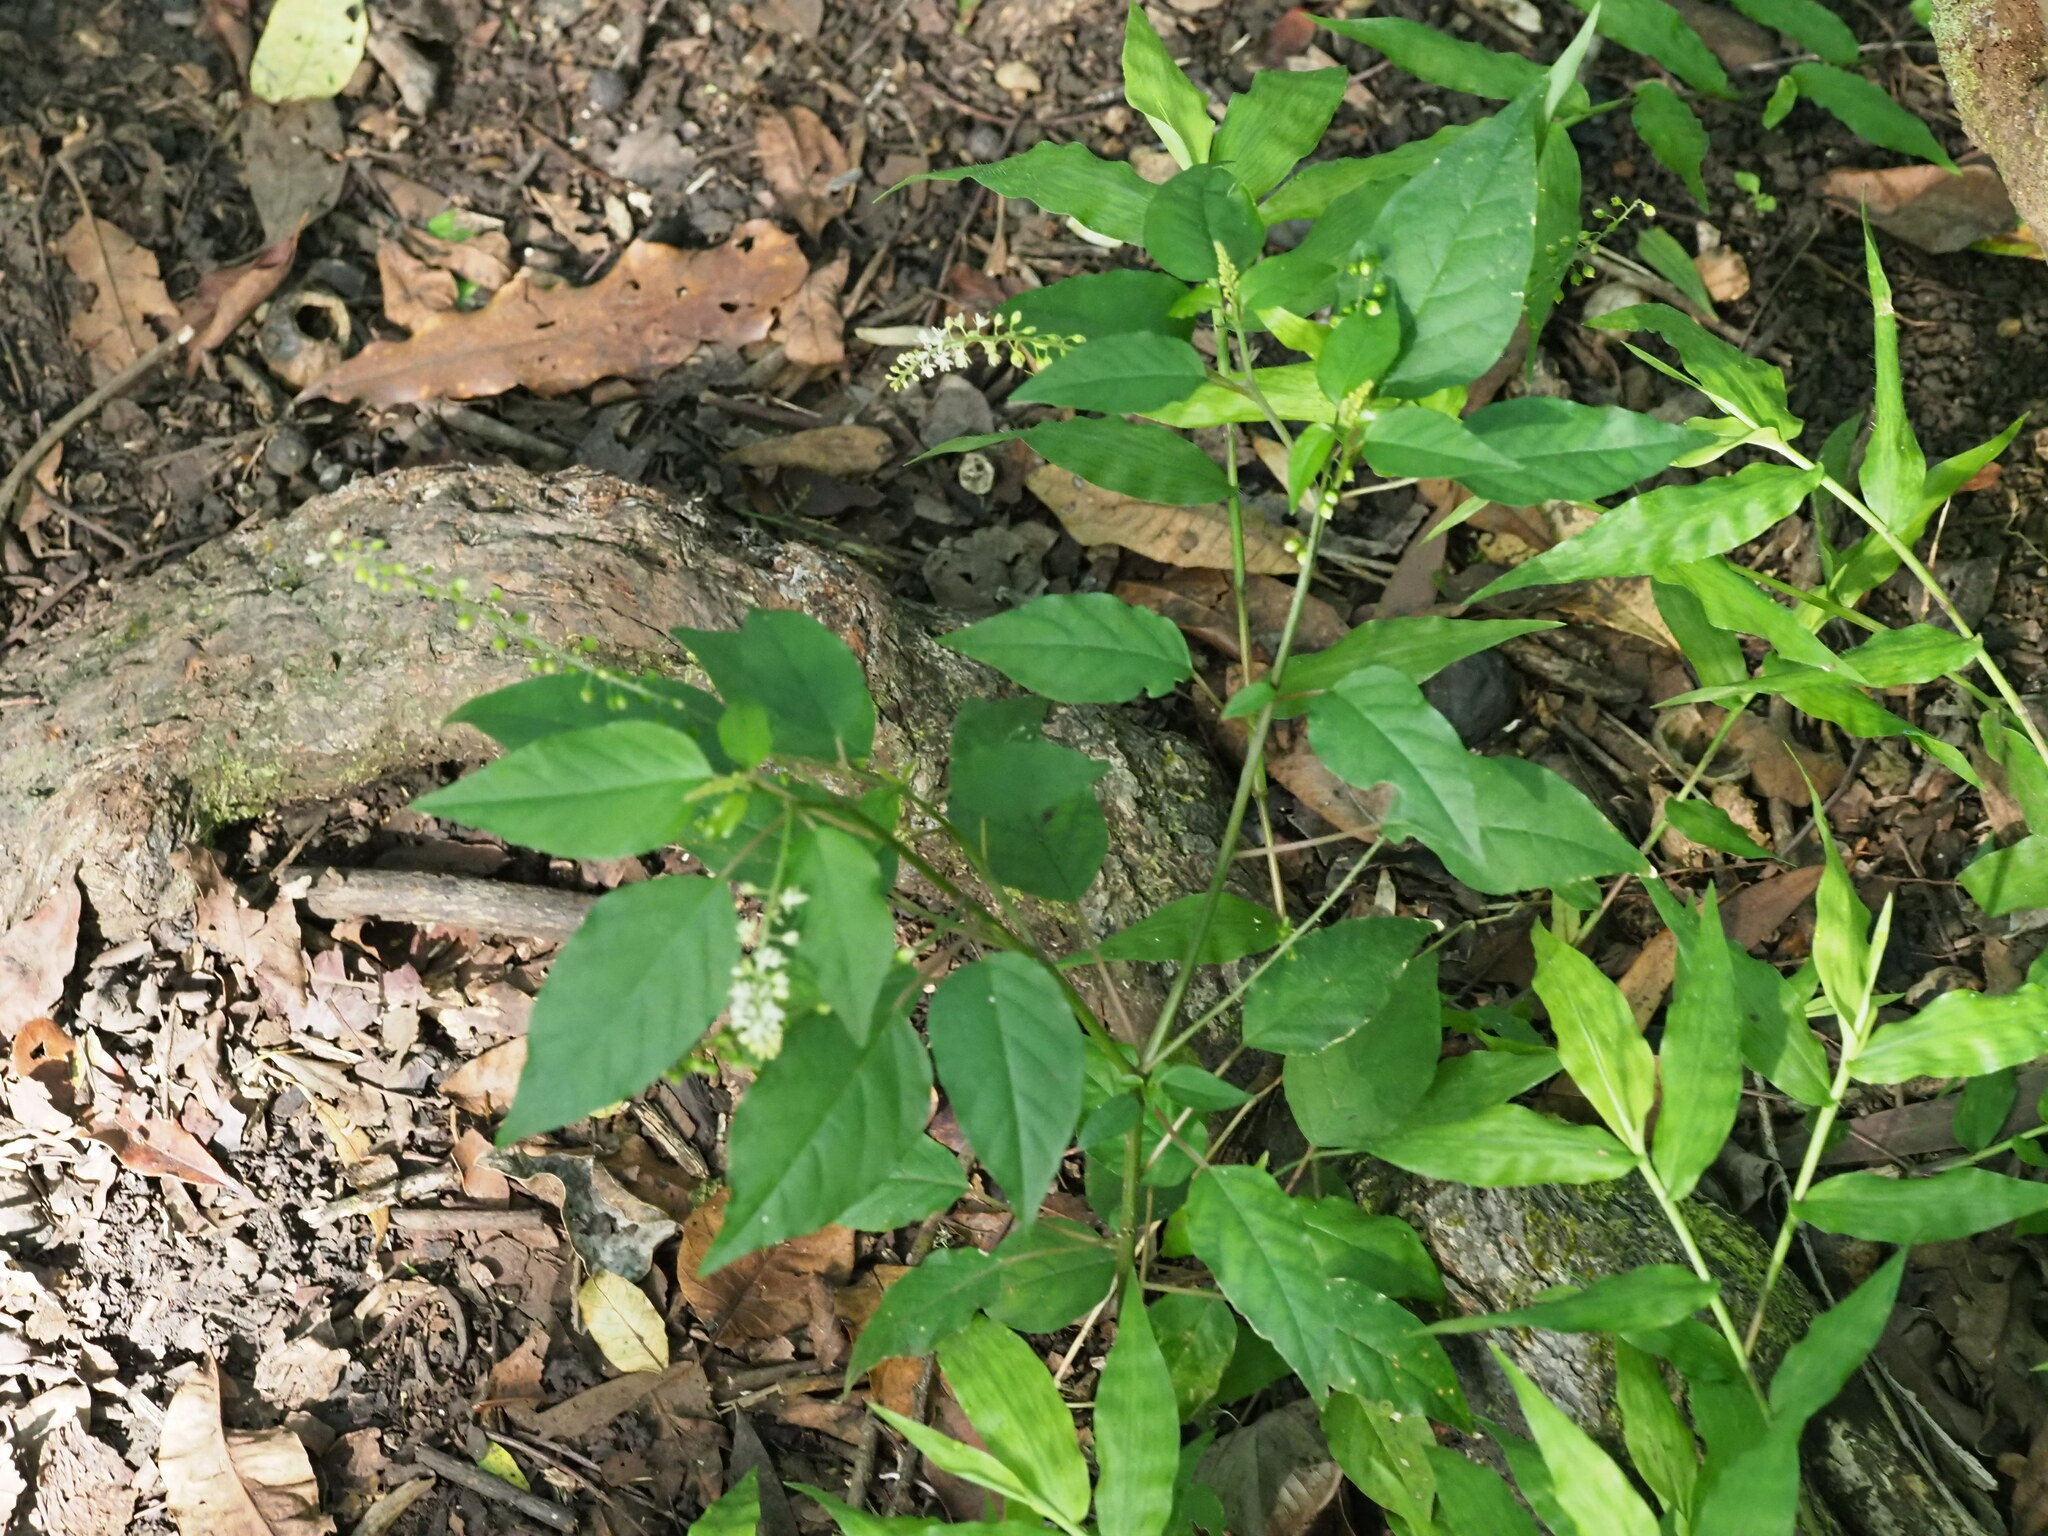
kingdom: Plantae
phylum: Tracheophyta
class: Magnoliopsida
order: Caryophyllales
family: Phytolaccaceae
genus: Rivina
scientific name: Rivina humilis
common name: Rougeplant
